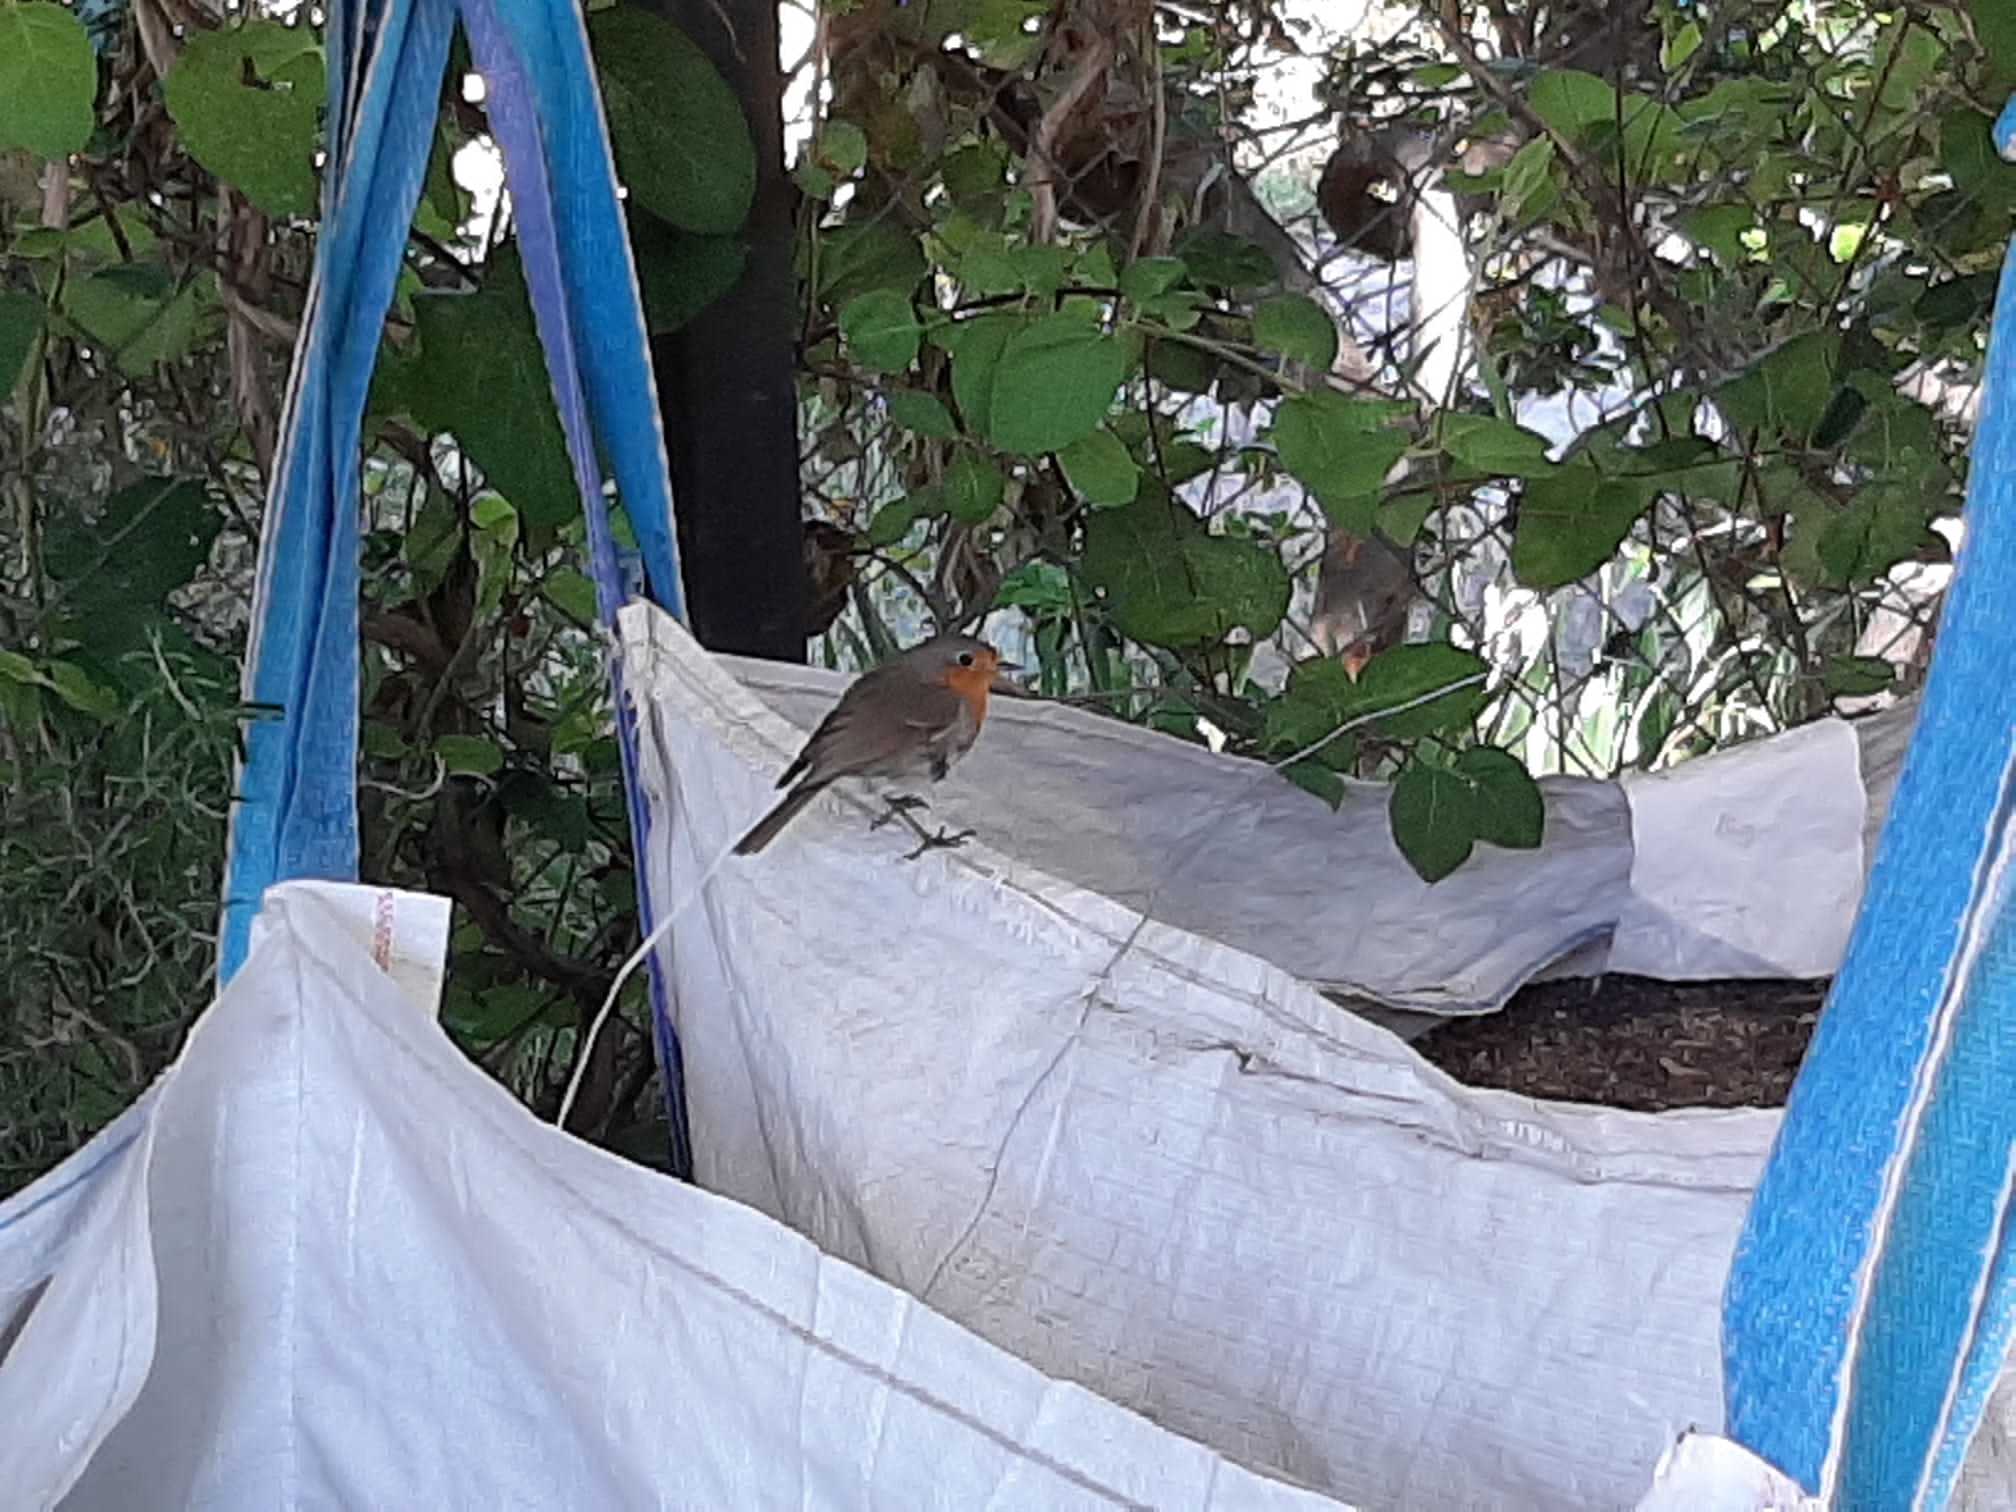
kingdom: Animalia
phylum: Chordata
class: Aves
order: Passeriformes
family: Muscicapidae
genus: Erithacus
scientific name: Erithacus rubecula
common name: European robin
